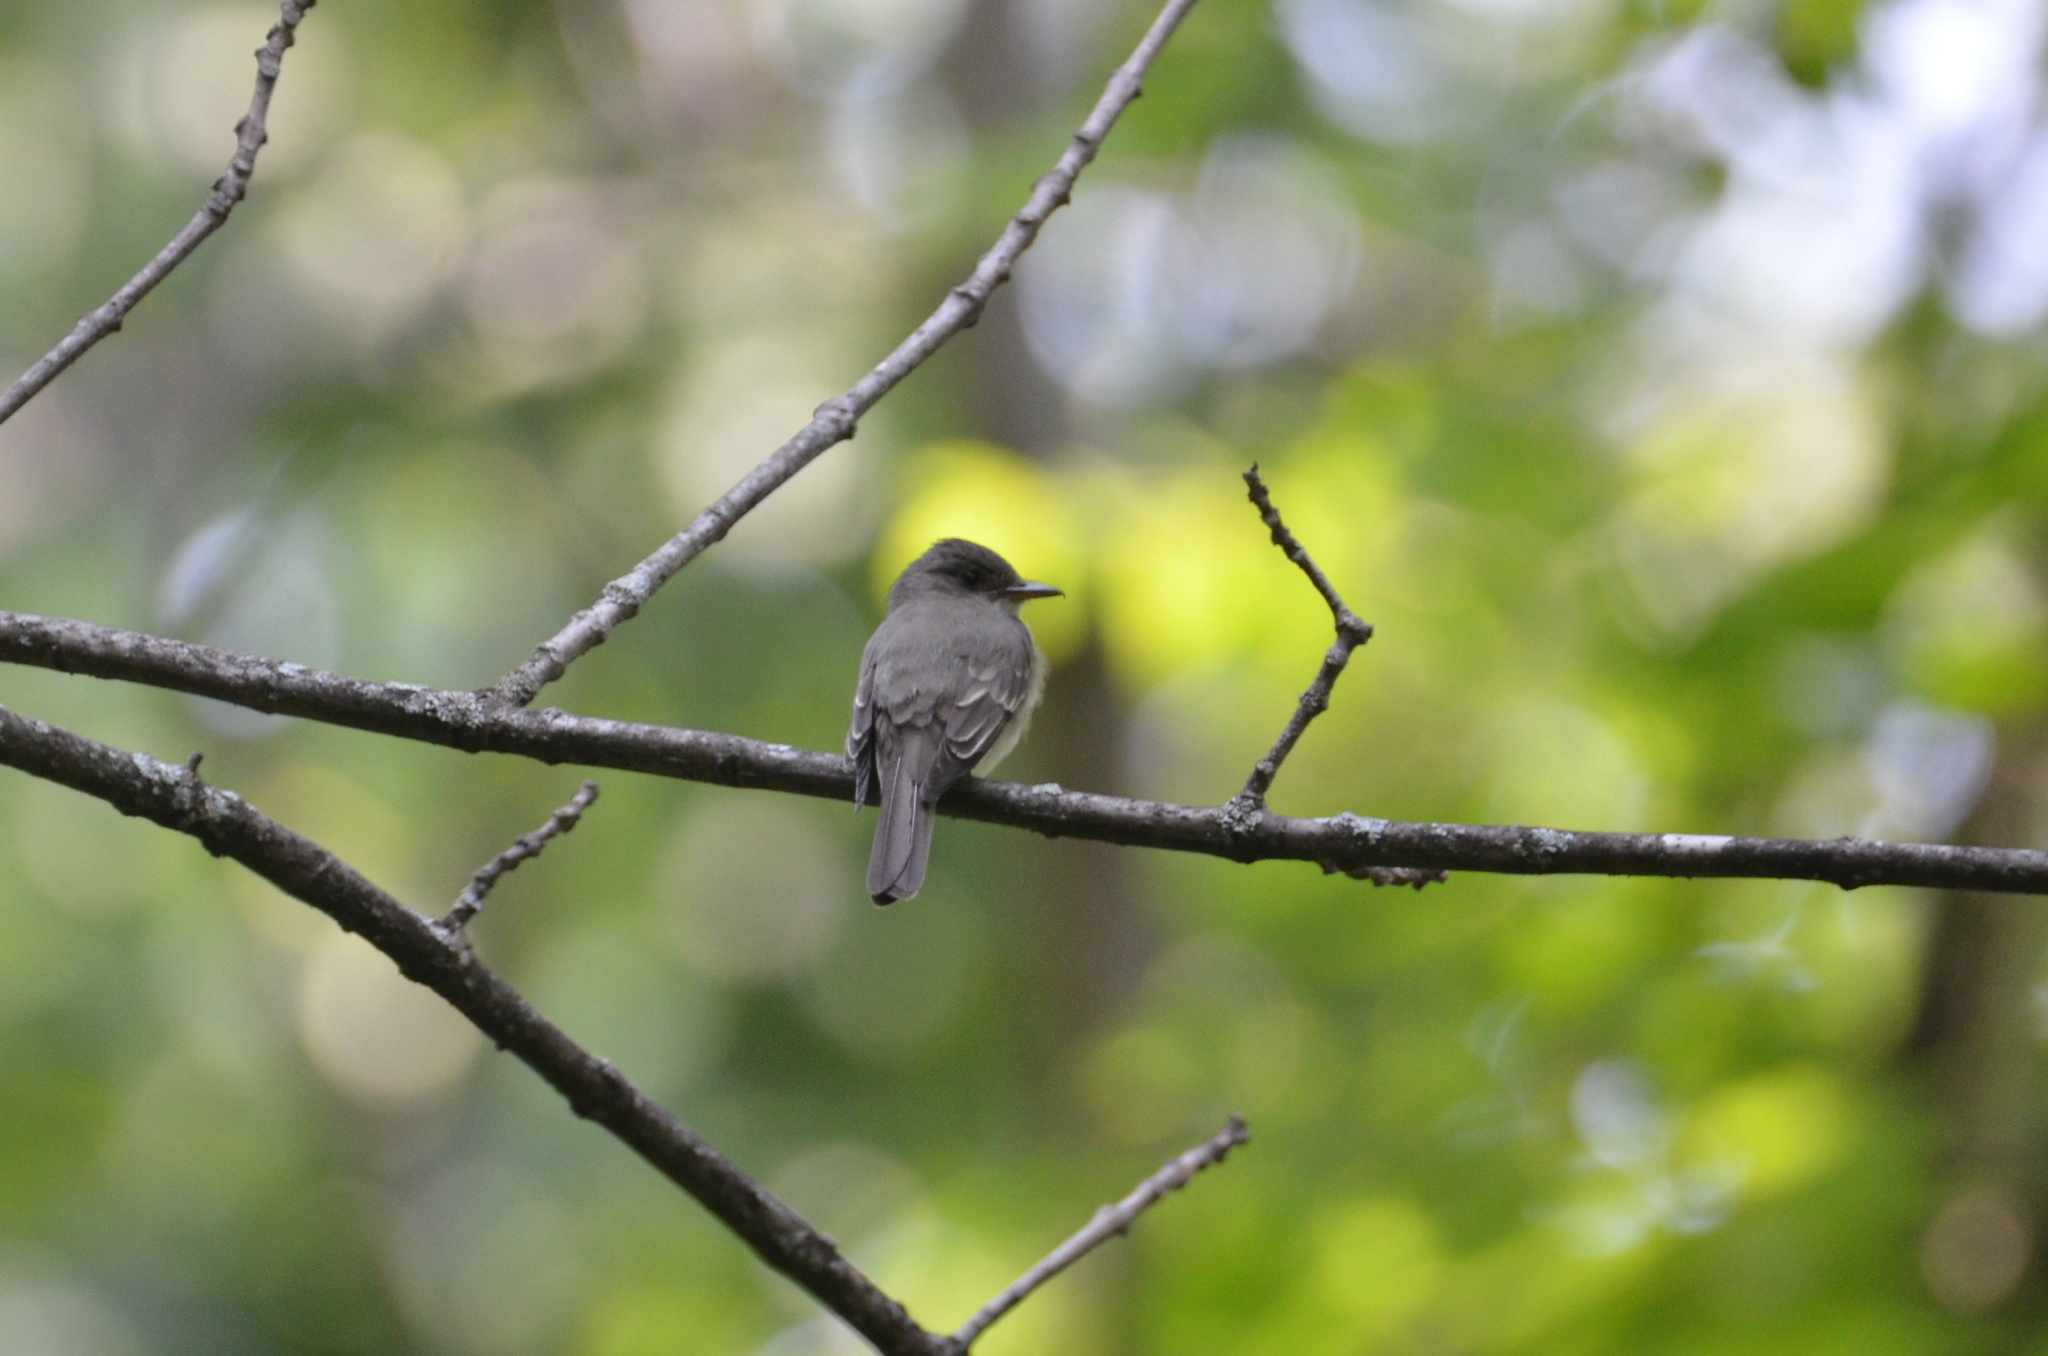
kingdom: Animalia
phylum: Chordata
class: Aves
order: Passeriformes
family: Tyrannidae
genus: Contopus
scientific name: Contopus virens
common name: Eastern wood-pewee
